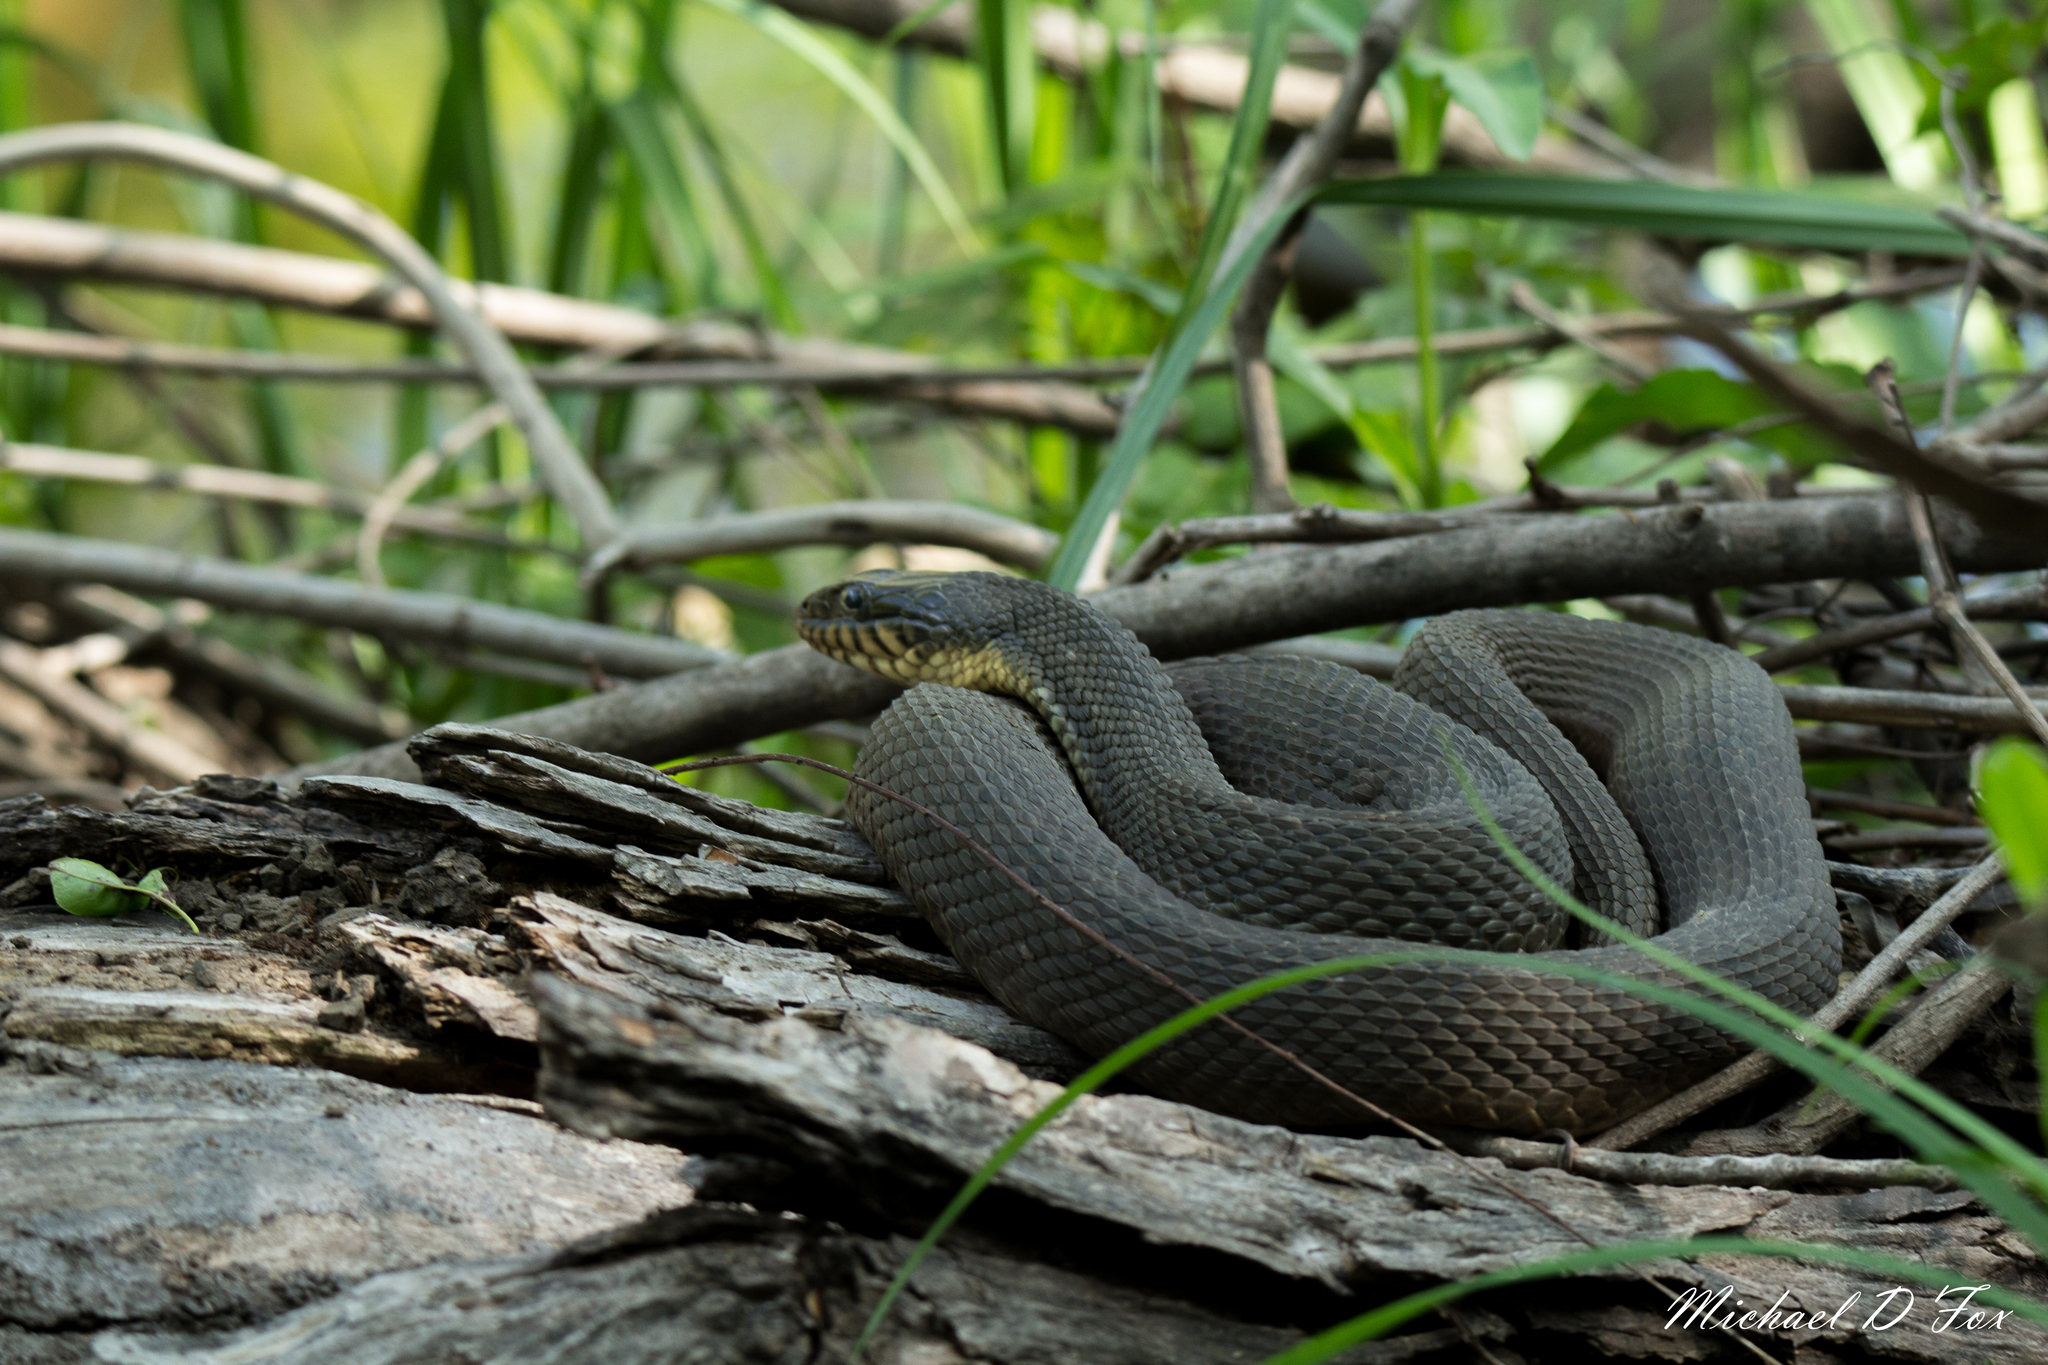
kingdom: Animalia
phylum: Chordata
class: Squamata
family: Colubridae
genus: Nerodia
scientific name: Nerodia erythrogaster
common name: Plainbelly water snake
